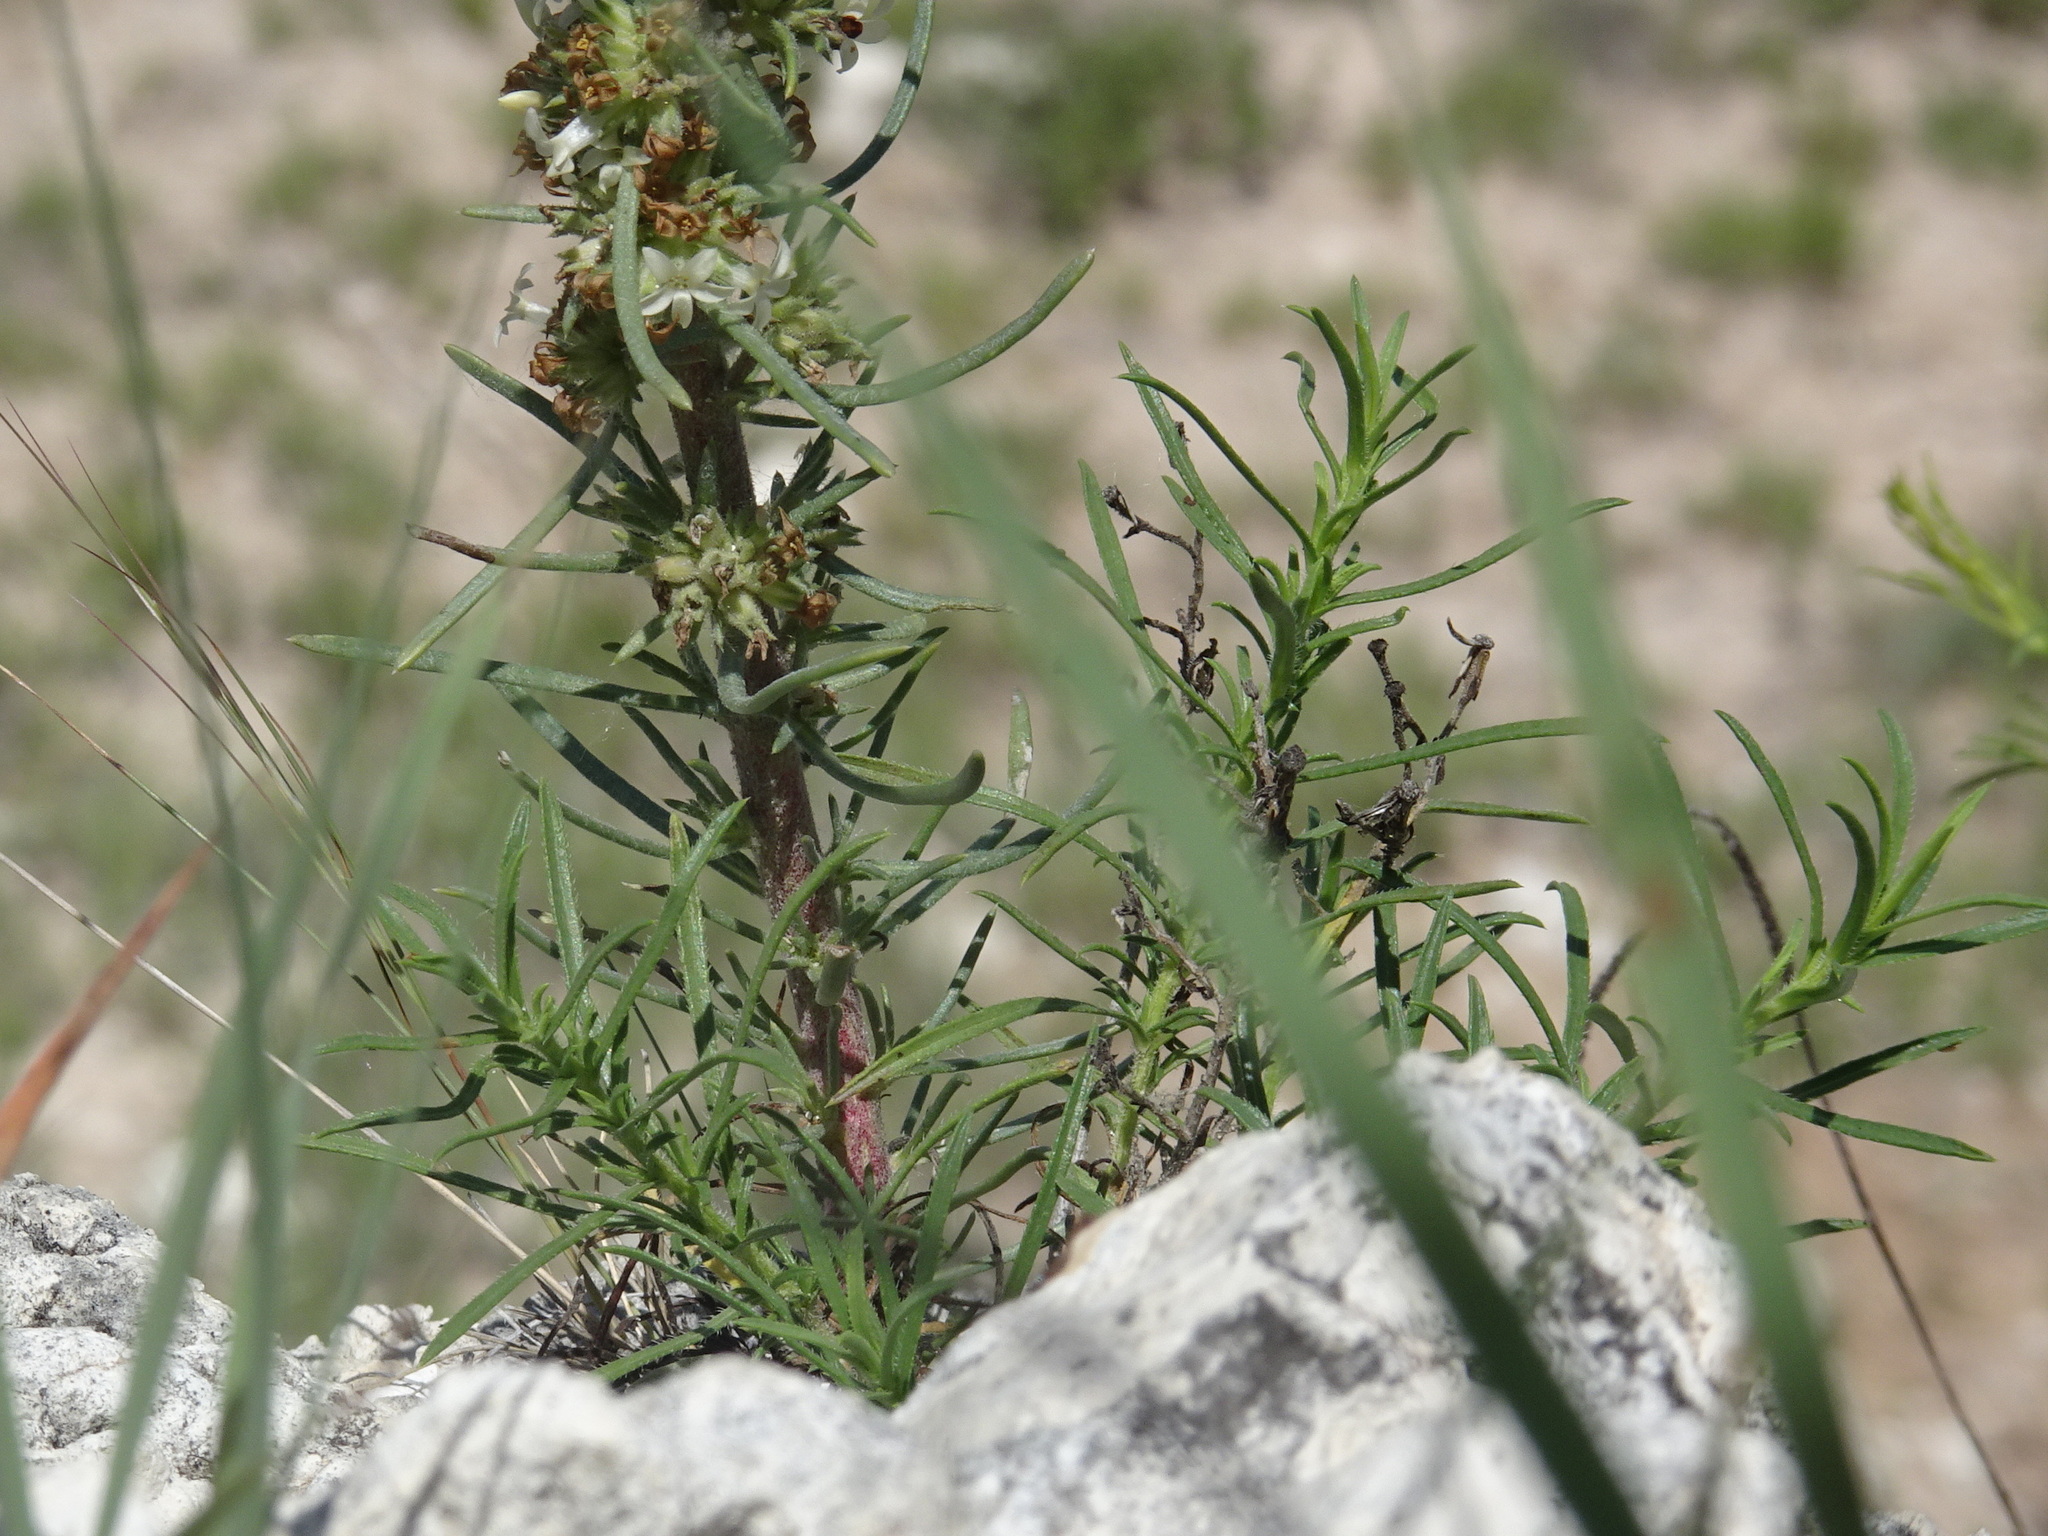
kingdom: Plantae
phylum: Tracheophyta
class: Magnoliopsida
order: Ericales
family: Polemoniaceae
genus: Ipomopsis
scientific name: Ipomopsis spicata
